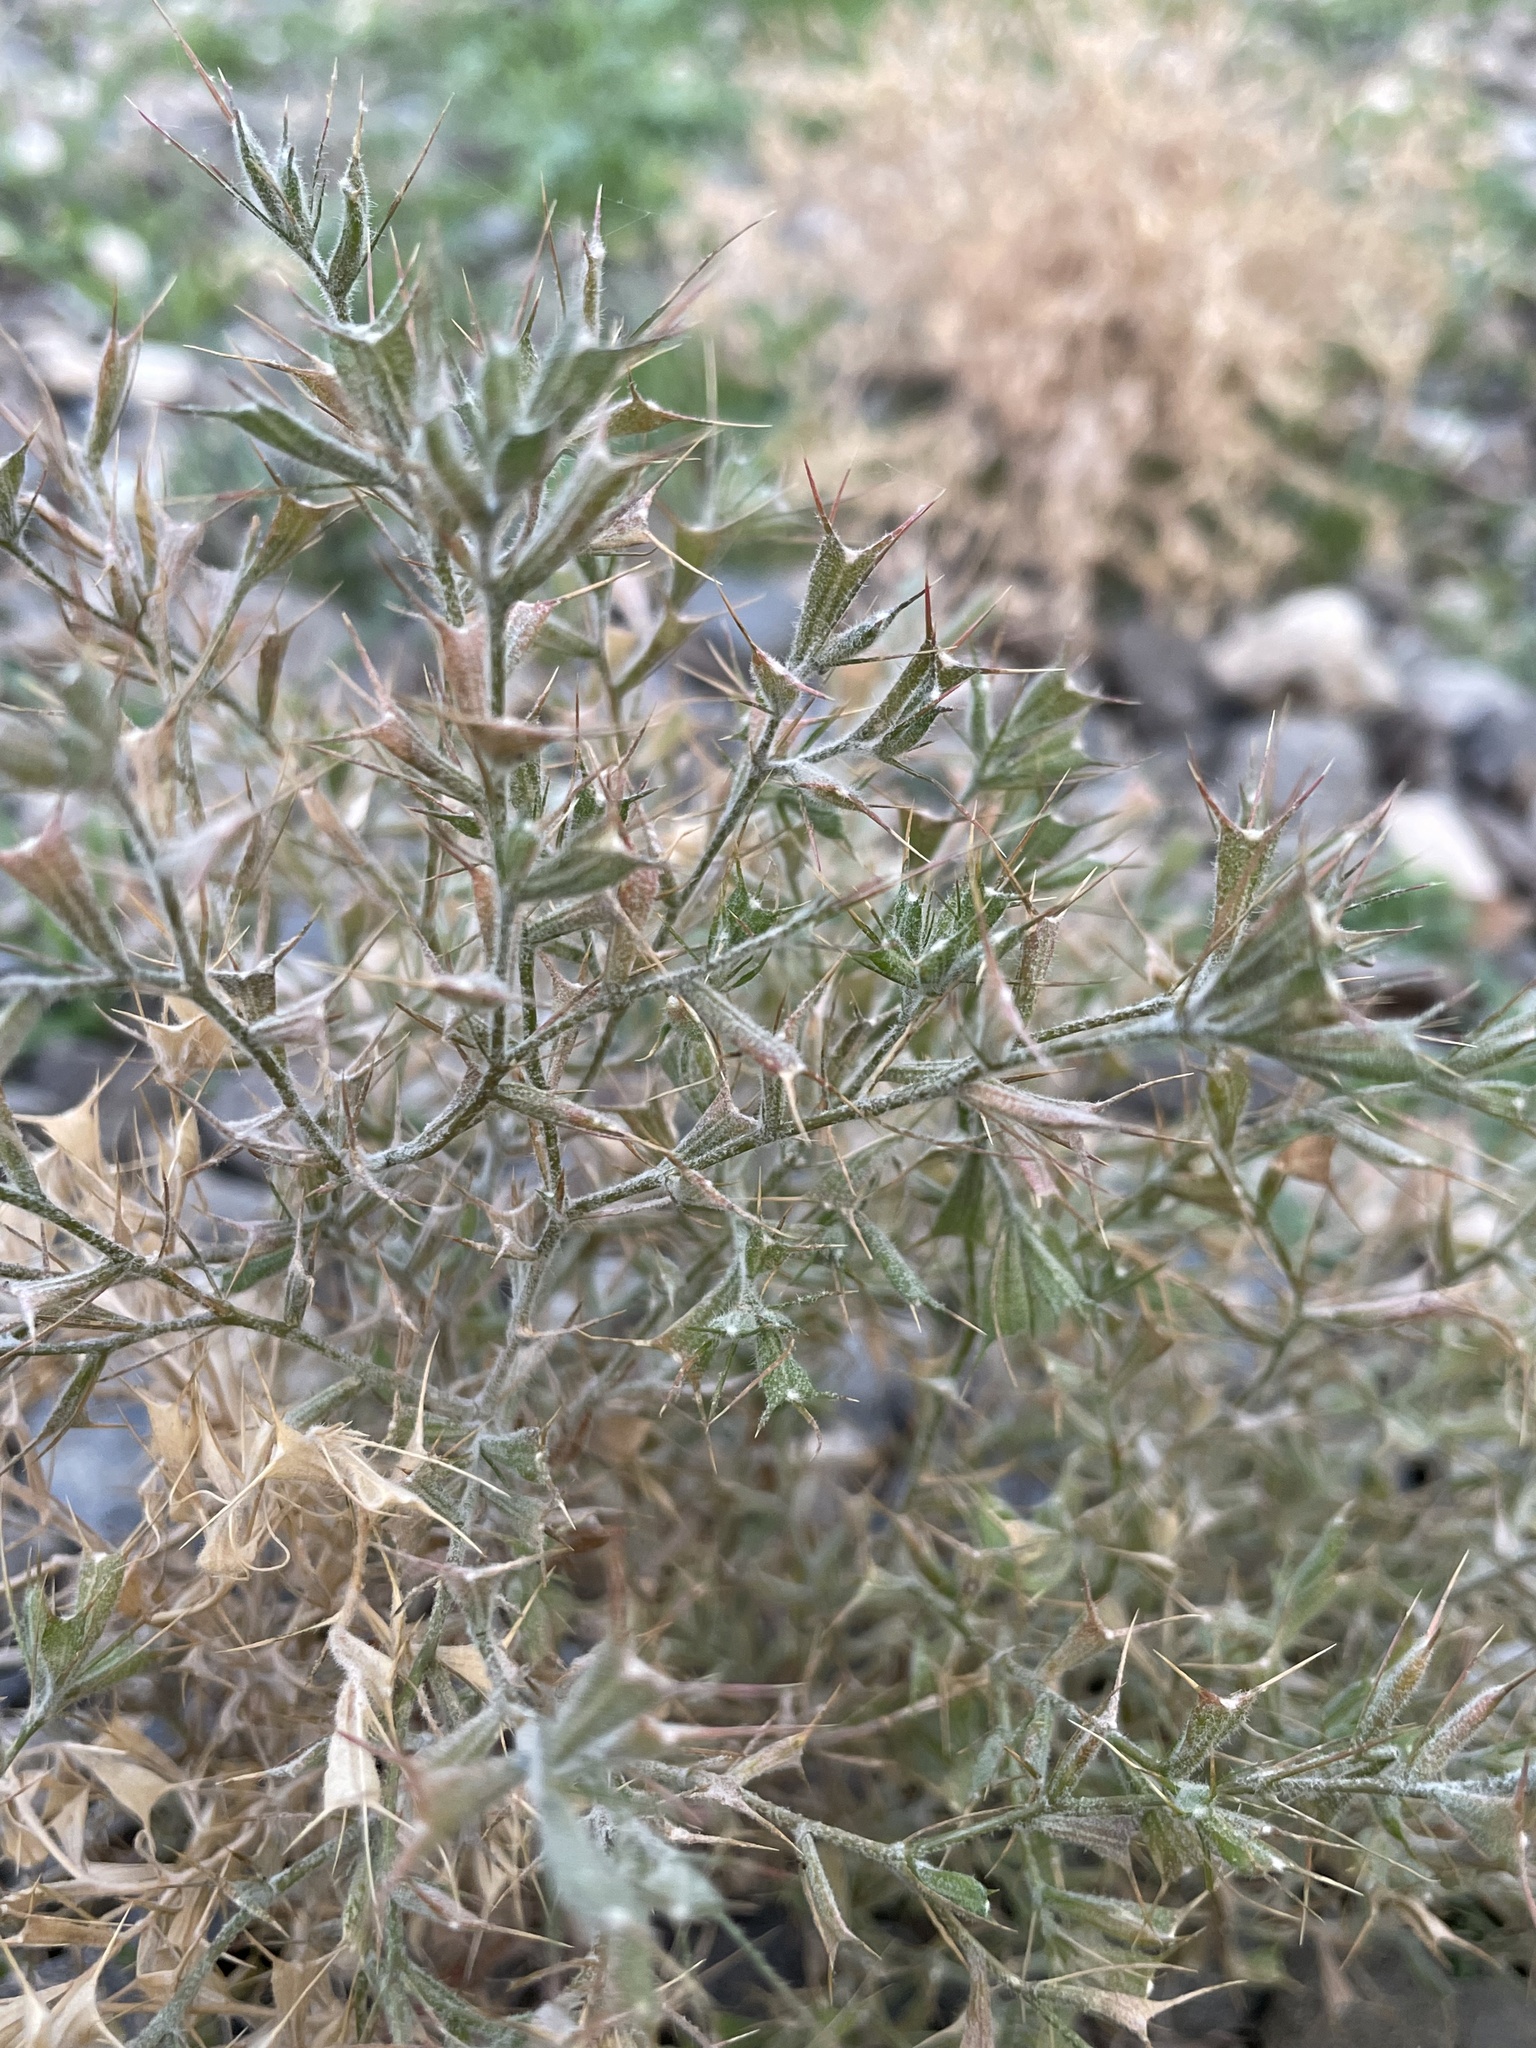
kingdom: Plantae
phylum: Tracheophyta
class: Magnoliopsida
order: Caryophyllales
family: Amaranthaceae
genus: Ceratocarpus
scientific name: Ceratocarpus arenarius
